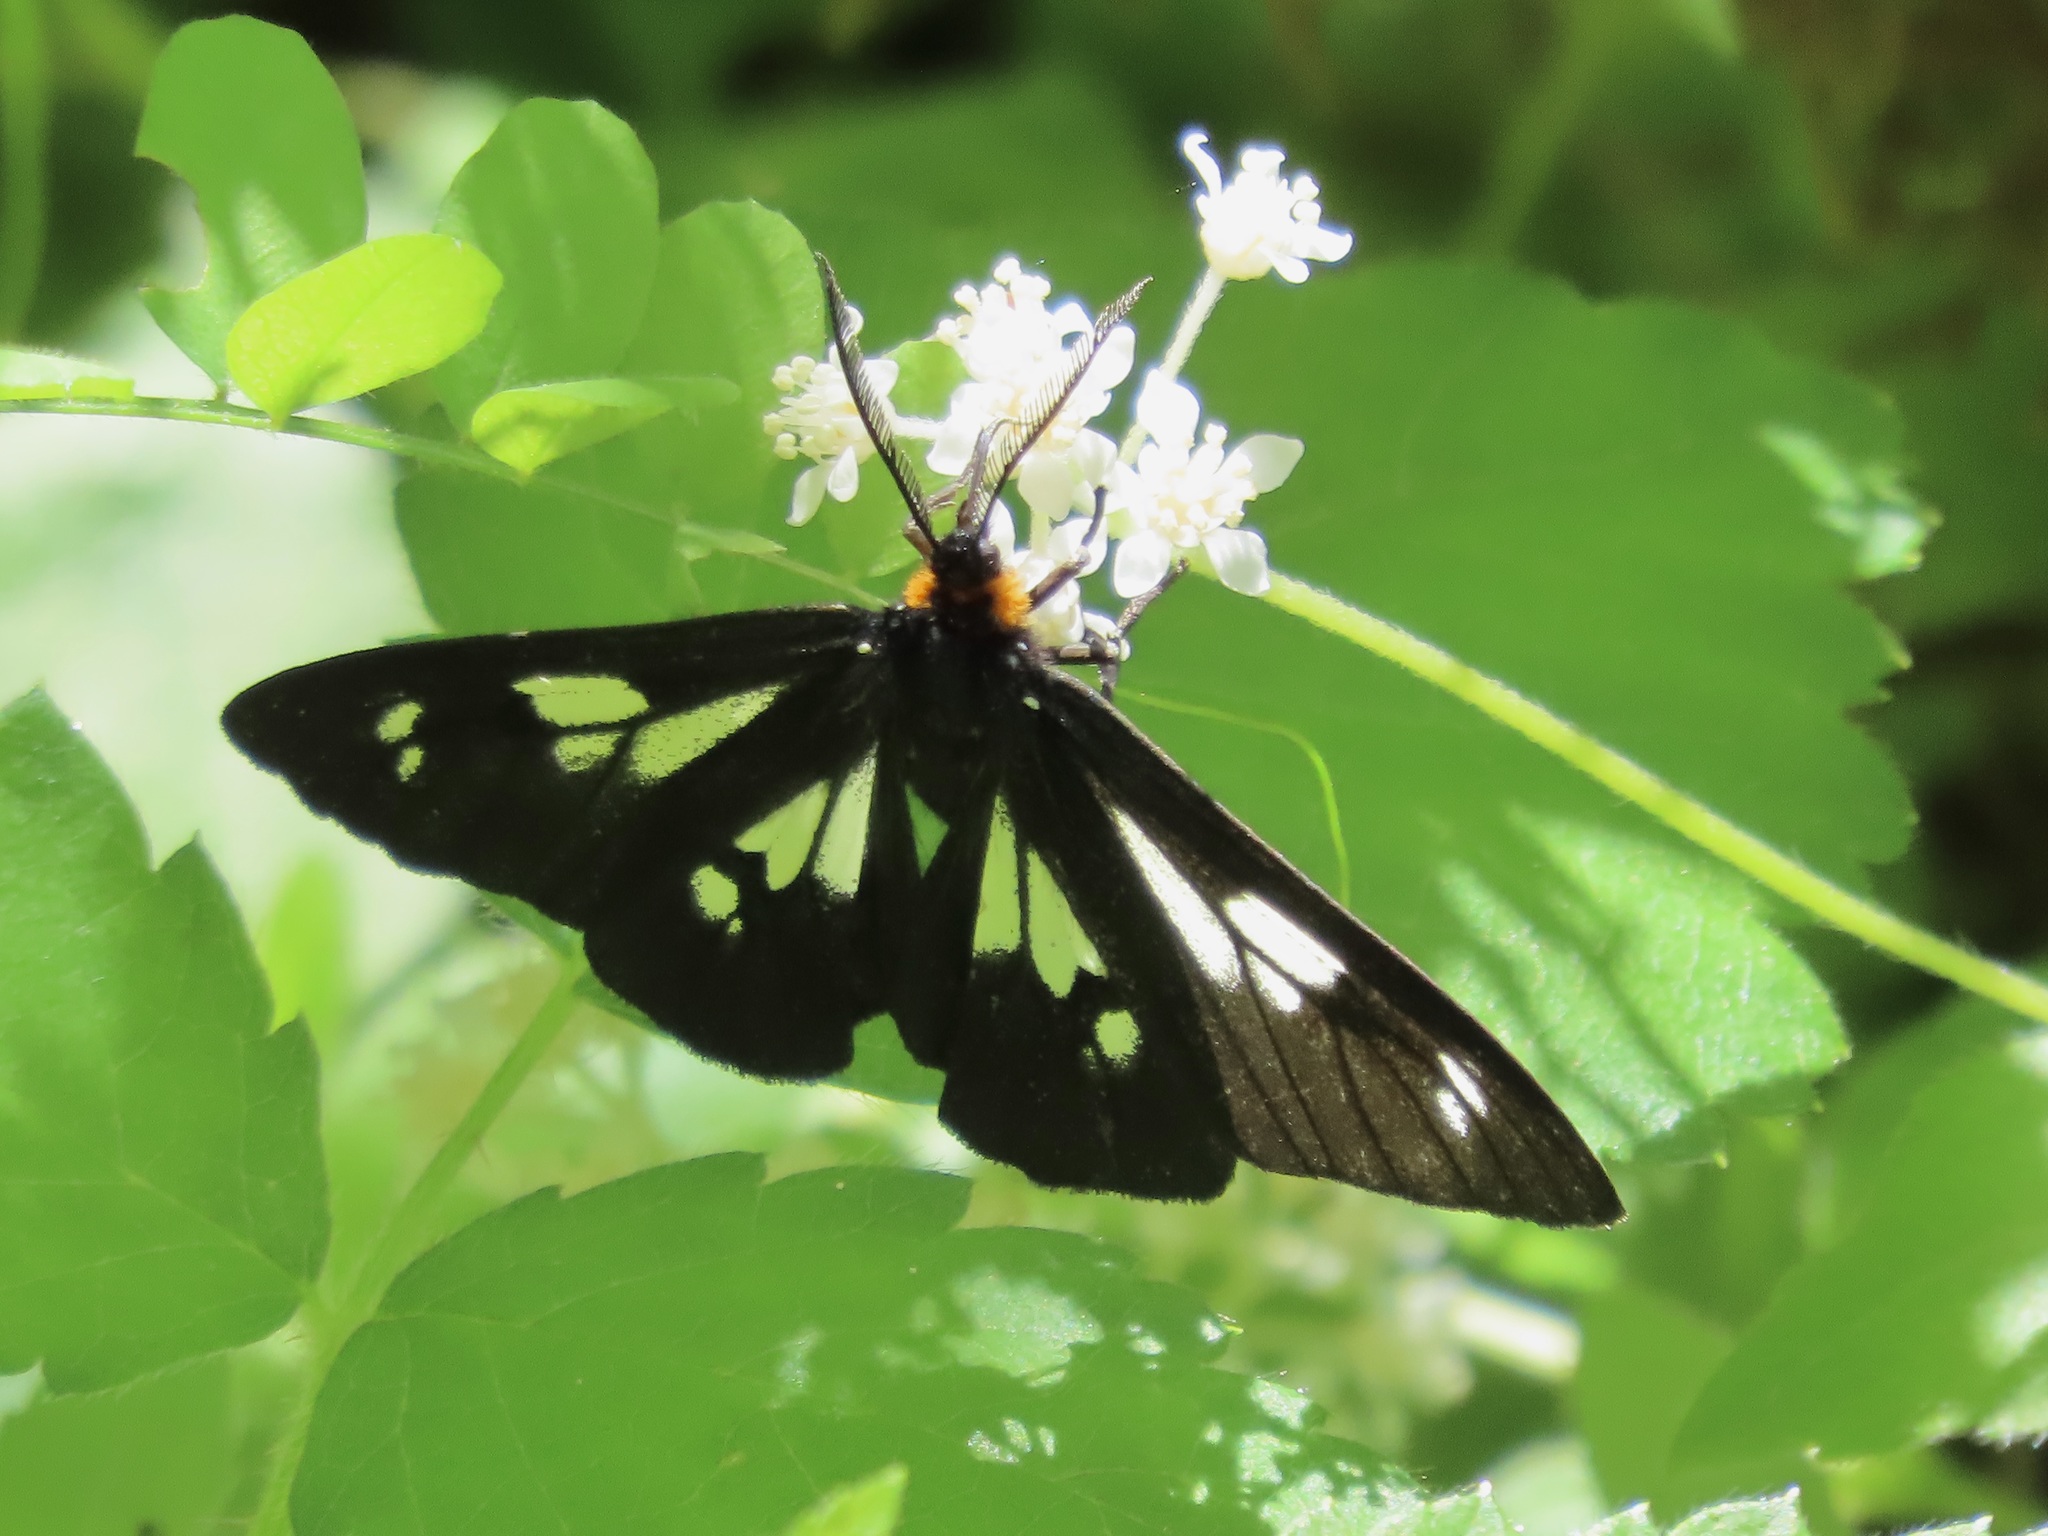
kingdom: Animalia
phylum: Arthropoda
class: Insecta
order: Lepidoptera
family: Erebidae
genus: Gnophaela
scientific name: Gnophaela latipennis
